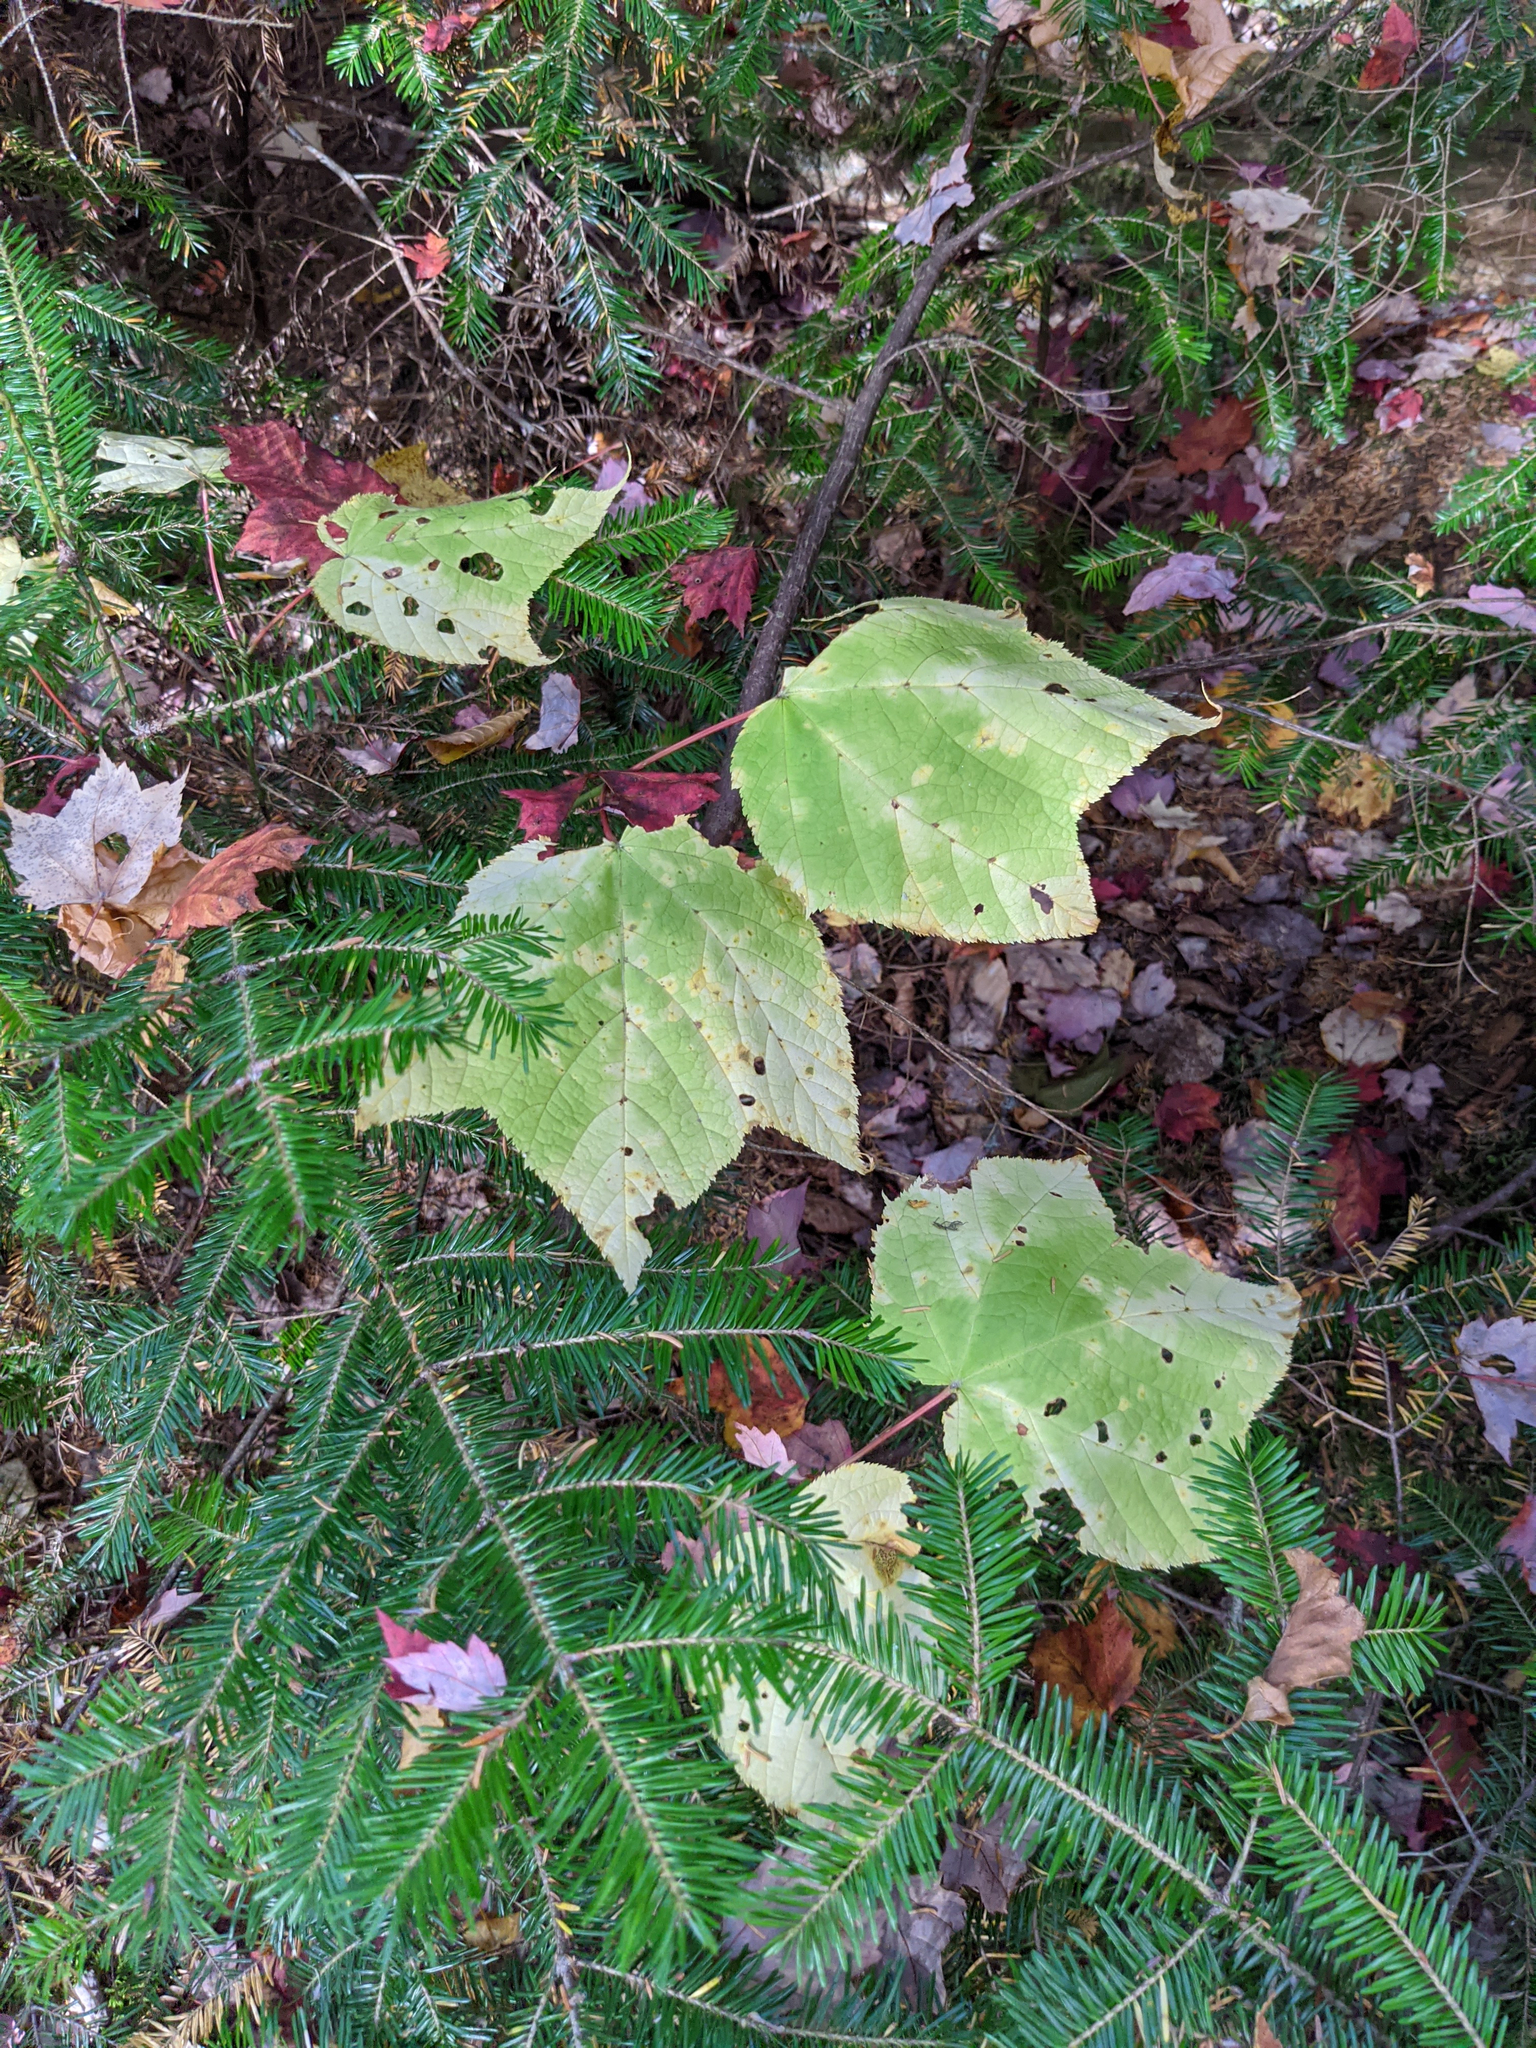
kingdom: Plantae
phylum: Tracheophyta
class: Magnoliopsida
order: Sapindales
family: Sapindaceae
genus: Acer
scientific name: Acer pensylvanicum
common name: Moosewood
